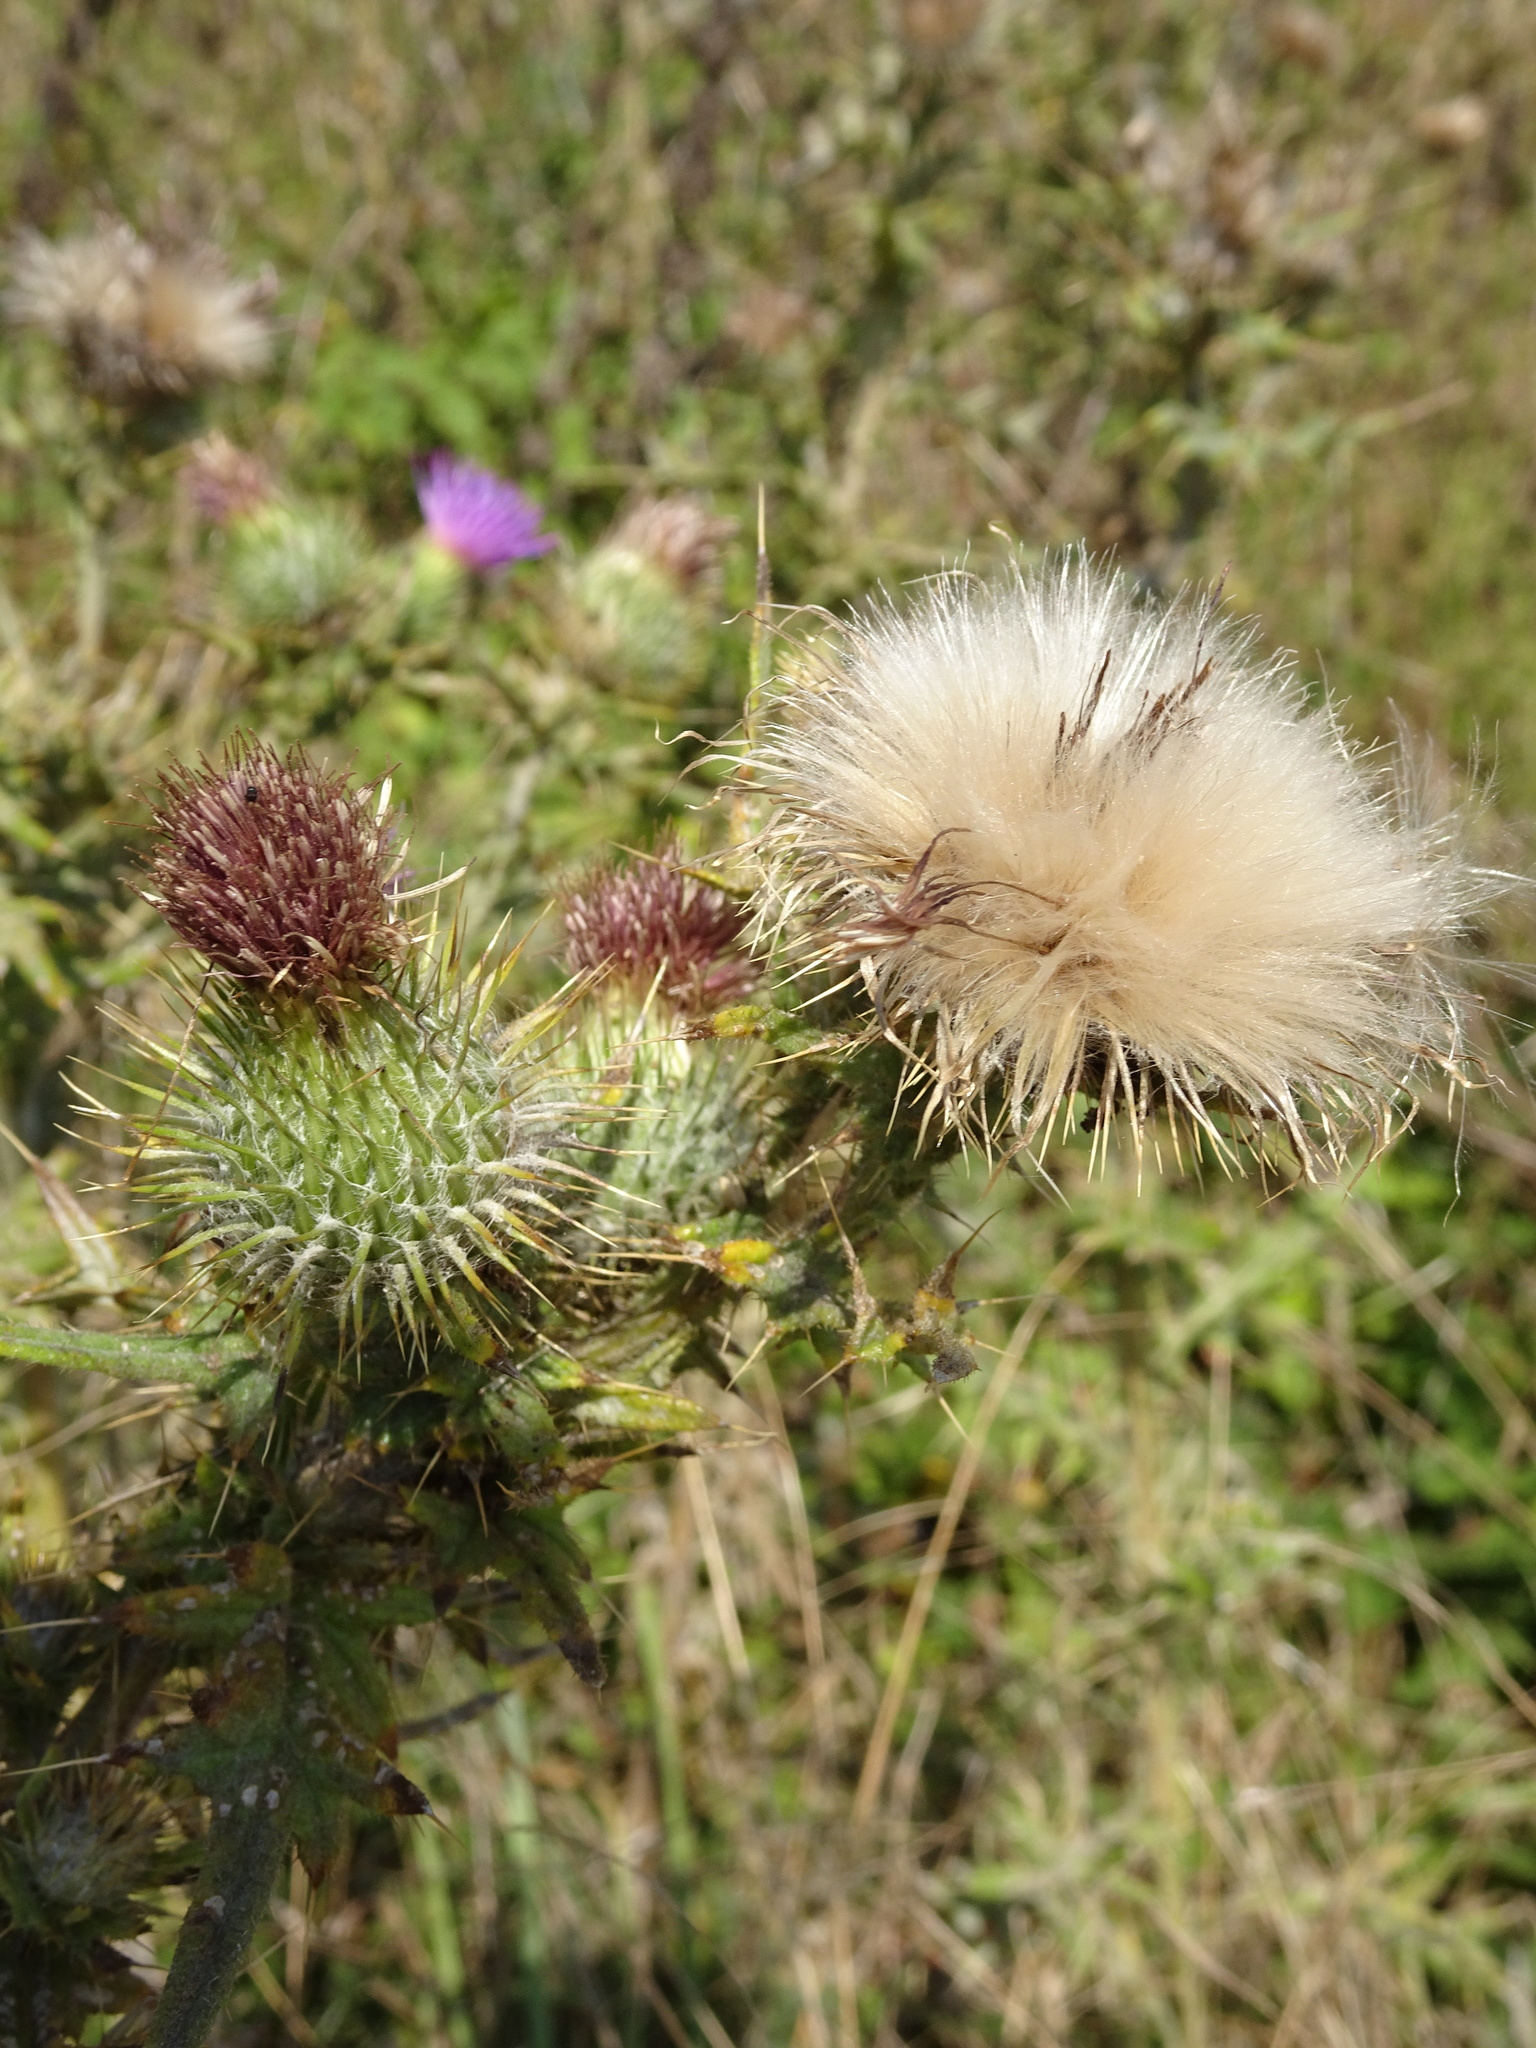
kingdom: Plantae
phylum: Tracheophyta
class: Magnoliopsida
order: Asterales
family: Asteraceae
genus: Cirsium
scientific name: Cirsium vulgare
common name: Bull thistle
